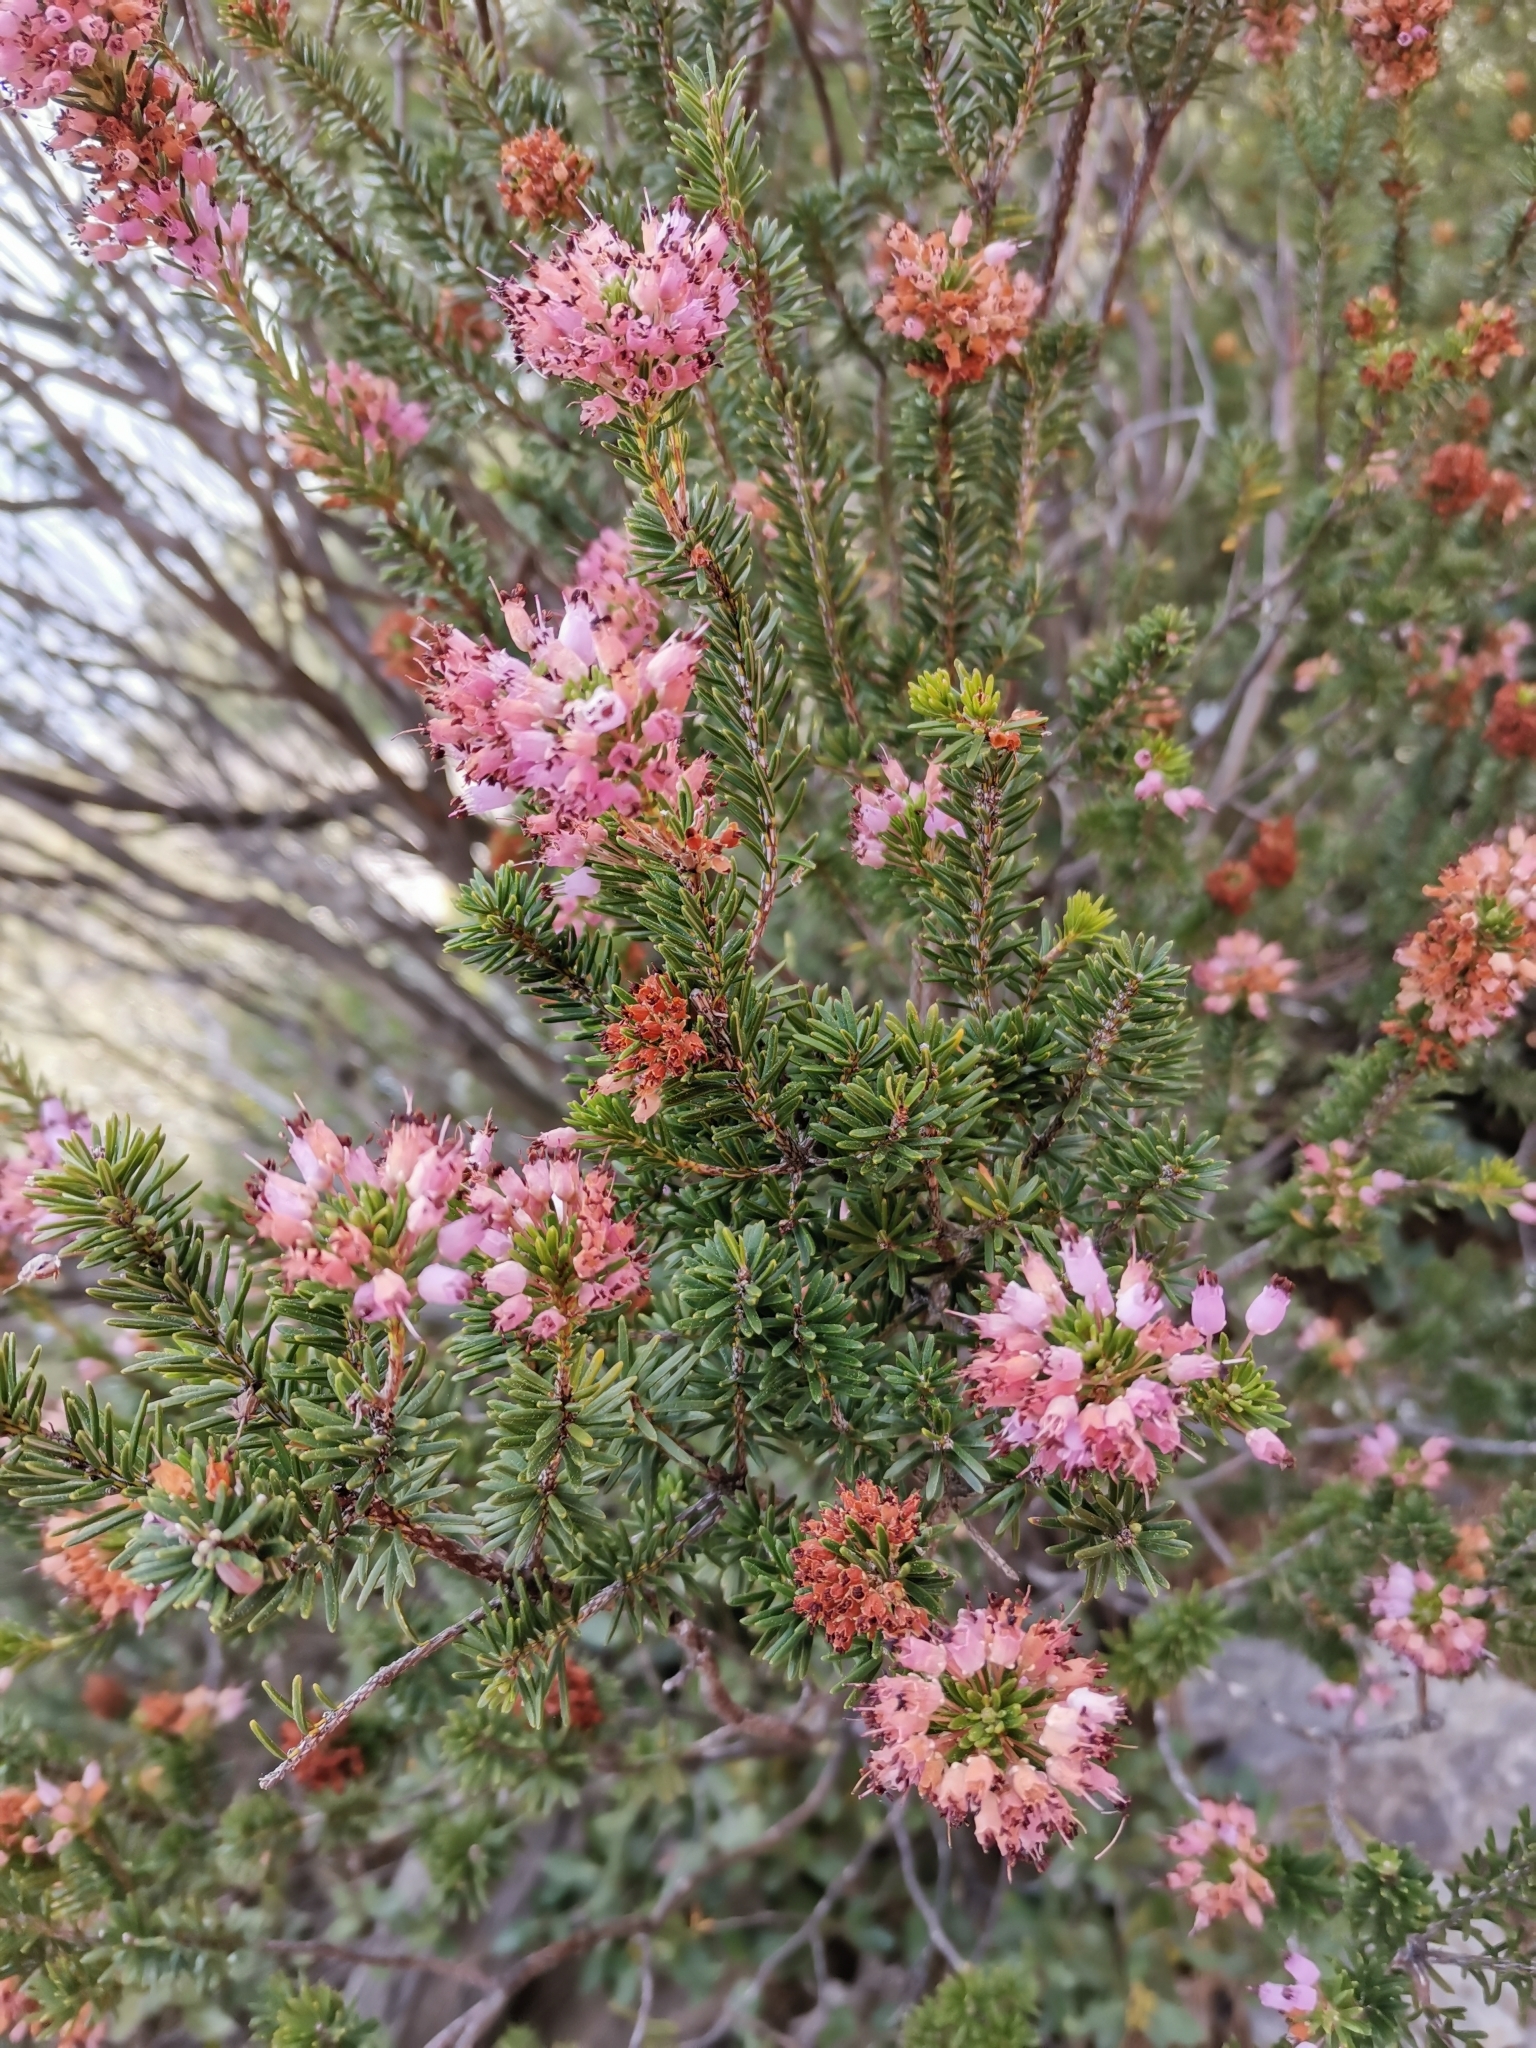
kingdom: Plantae
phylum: Tracheophyta
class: Magnoliopsida
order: Ericales
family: Ericaceae
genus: Erica
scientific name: Erica multiflora
